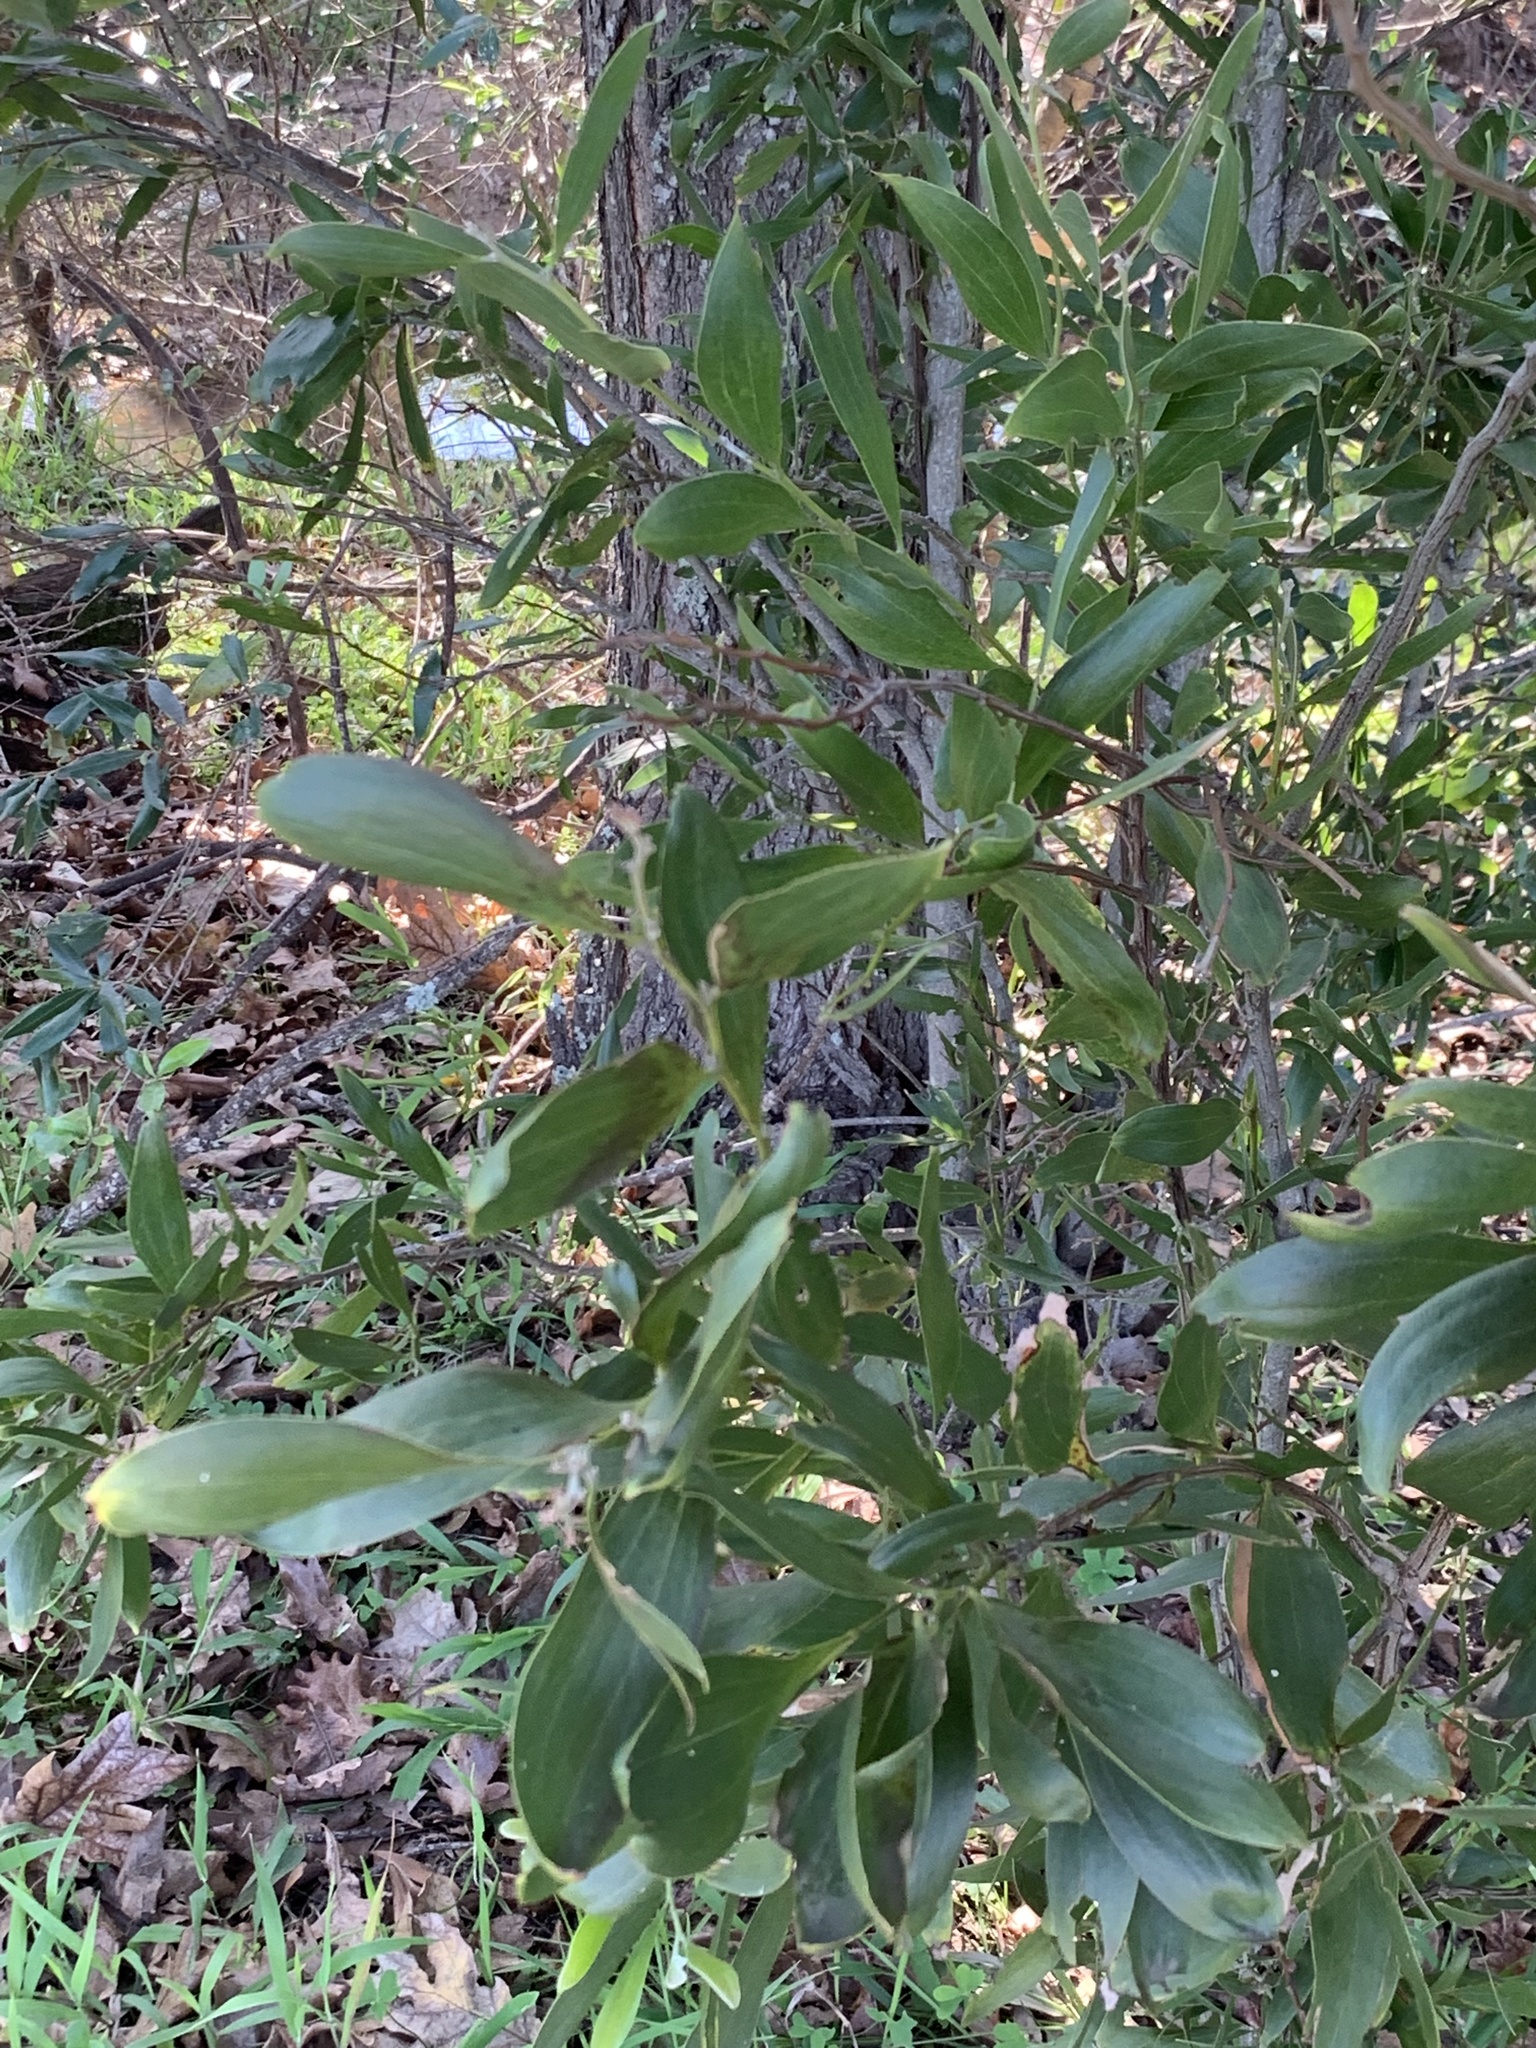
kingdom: Plantae
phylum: Tracheophyta
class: Magnoliopsida
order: Fabales
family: Fabaceae
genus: Acacia
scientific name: Acacia melanoxylon
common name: Blackwood
